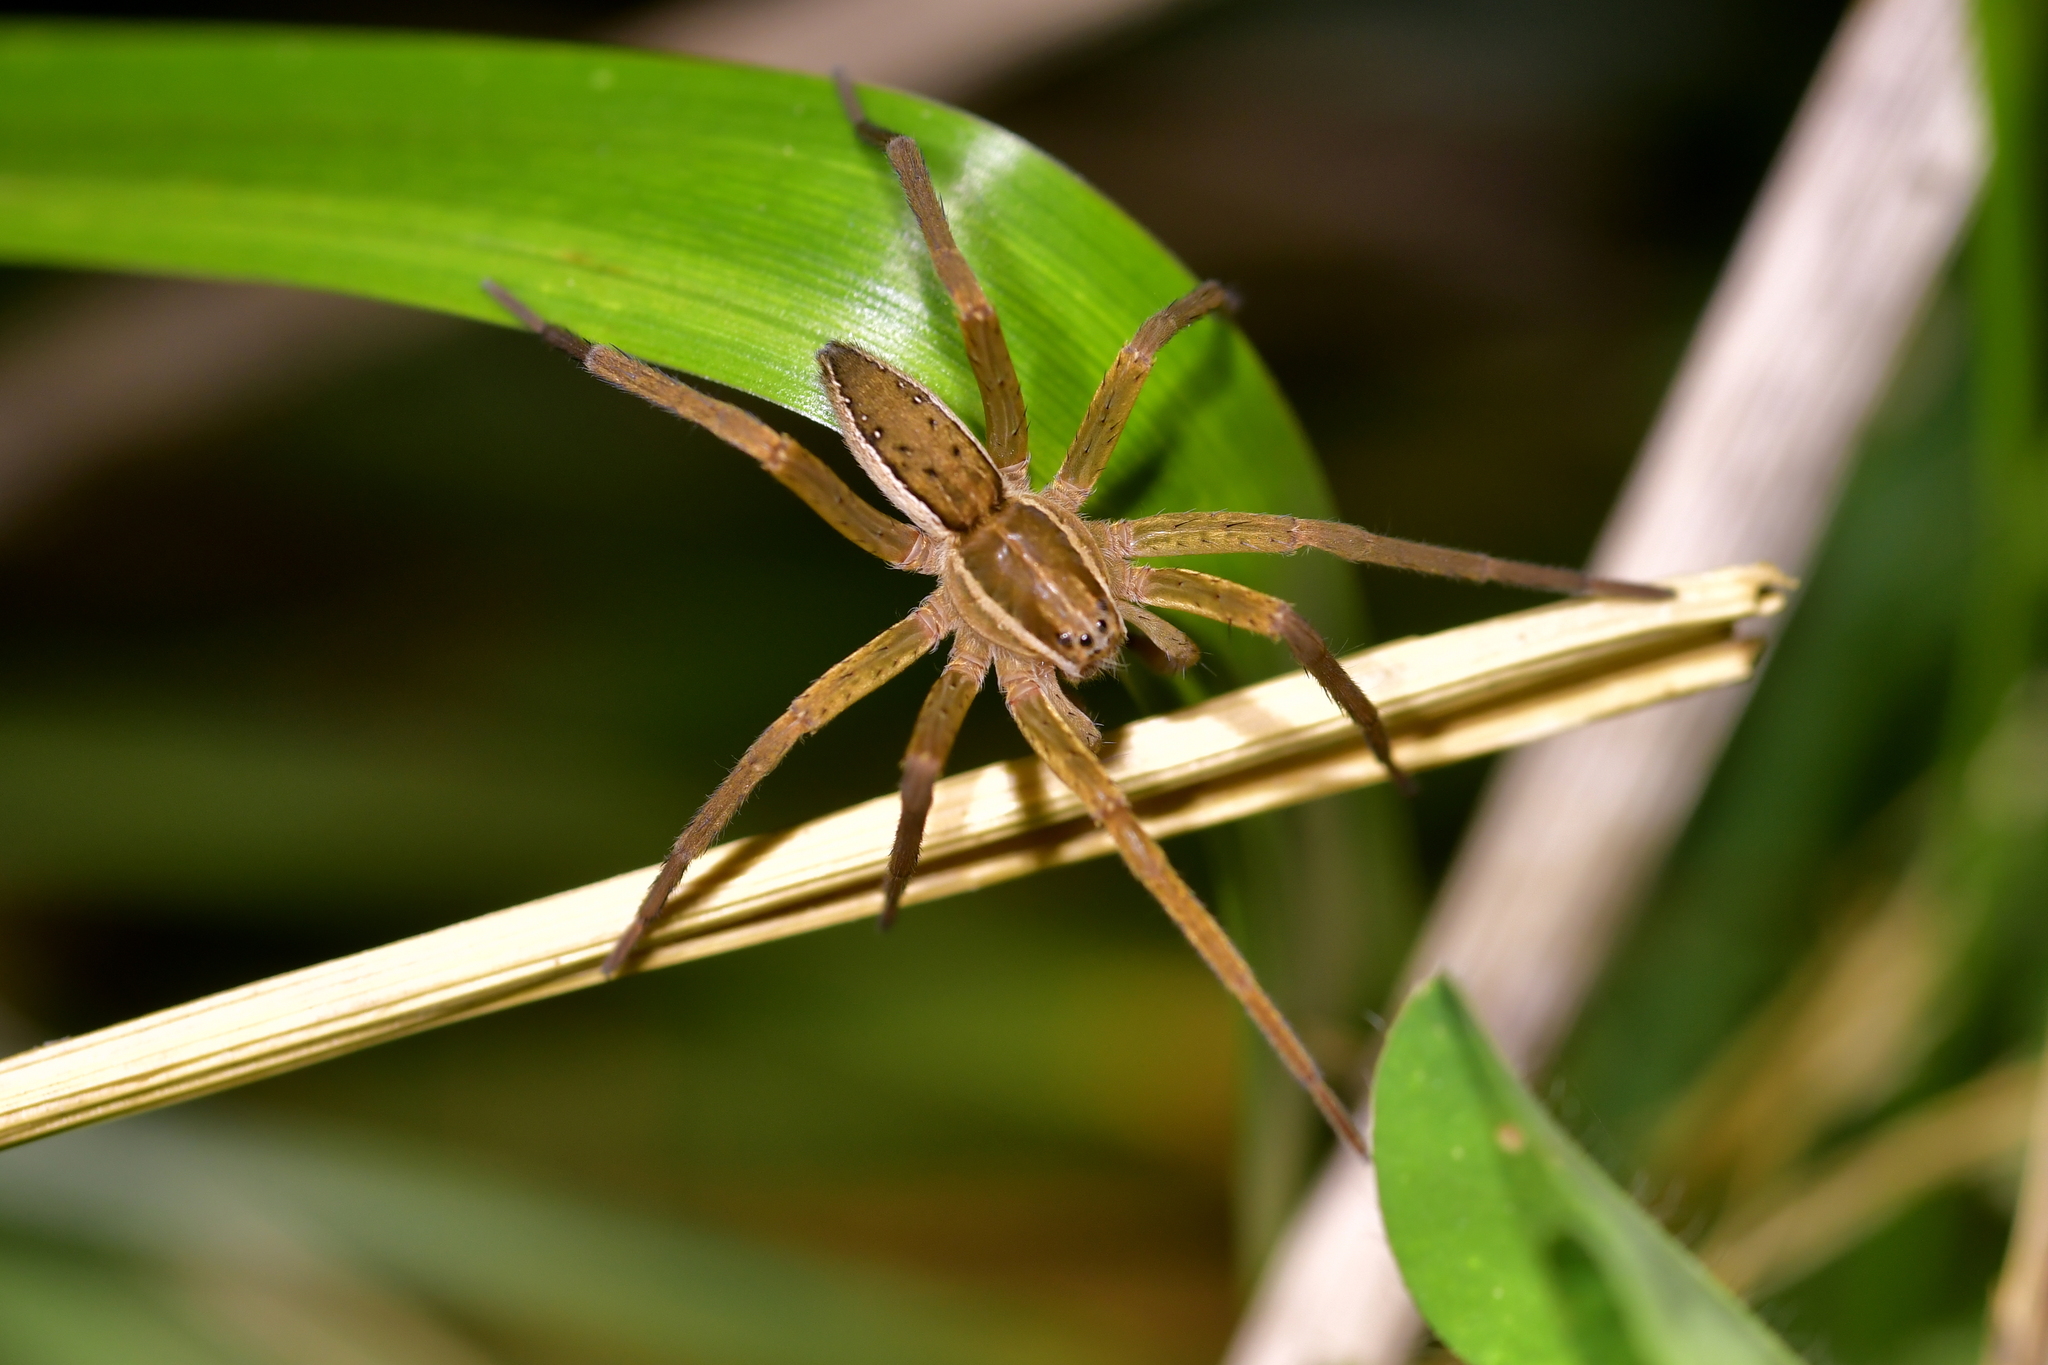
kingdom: Animalia
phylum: Arthropoda
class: Arachnida
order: Araneae
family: Pisauridae
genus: Dolomedes
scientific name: Dolomedes minor
